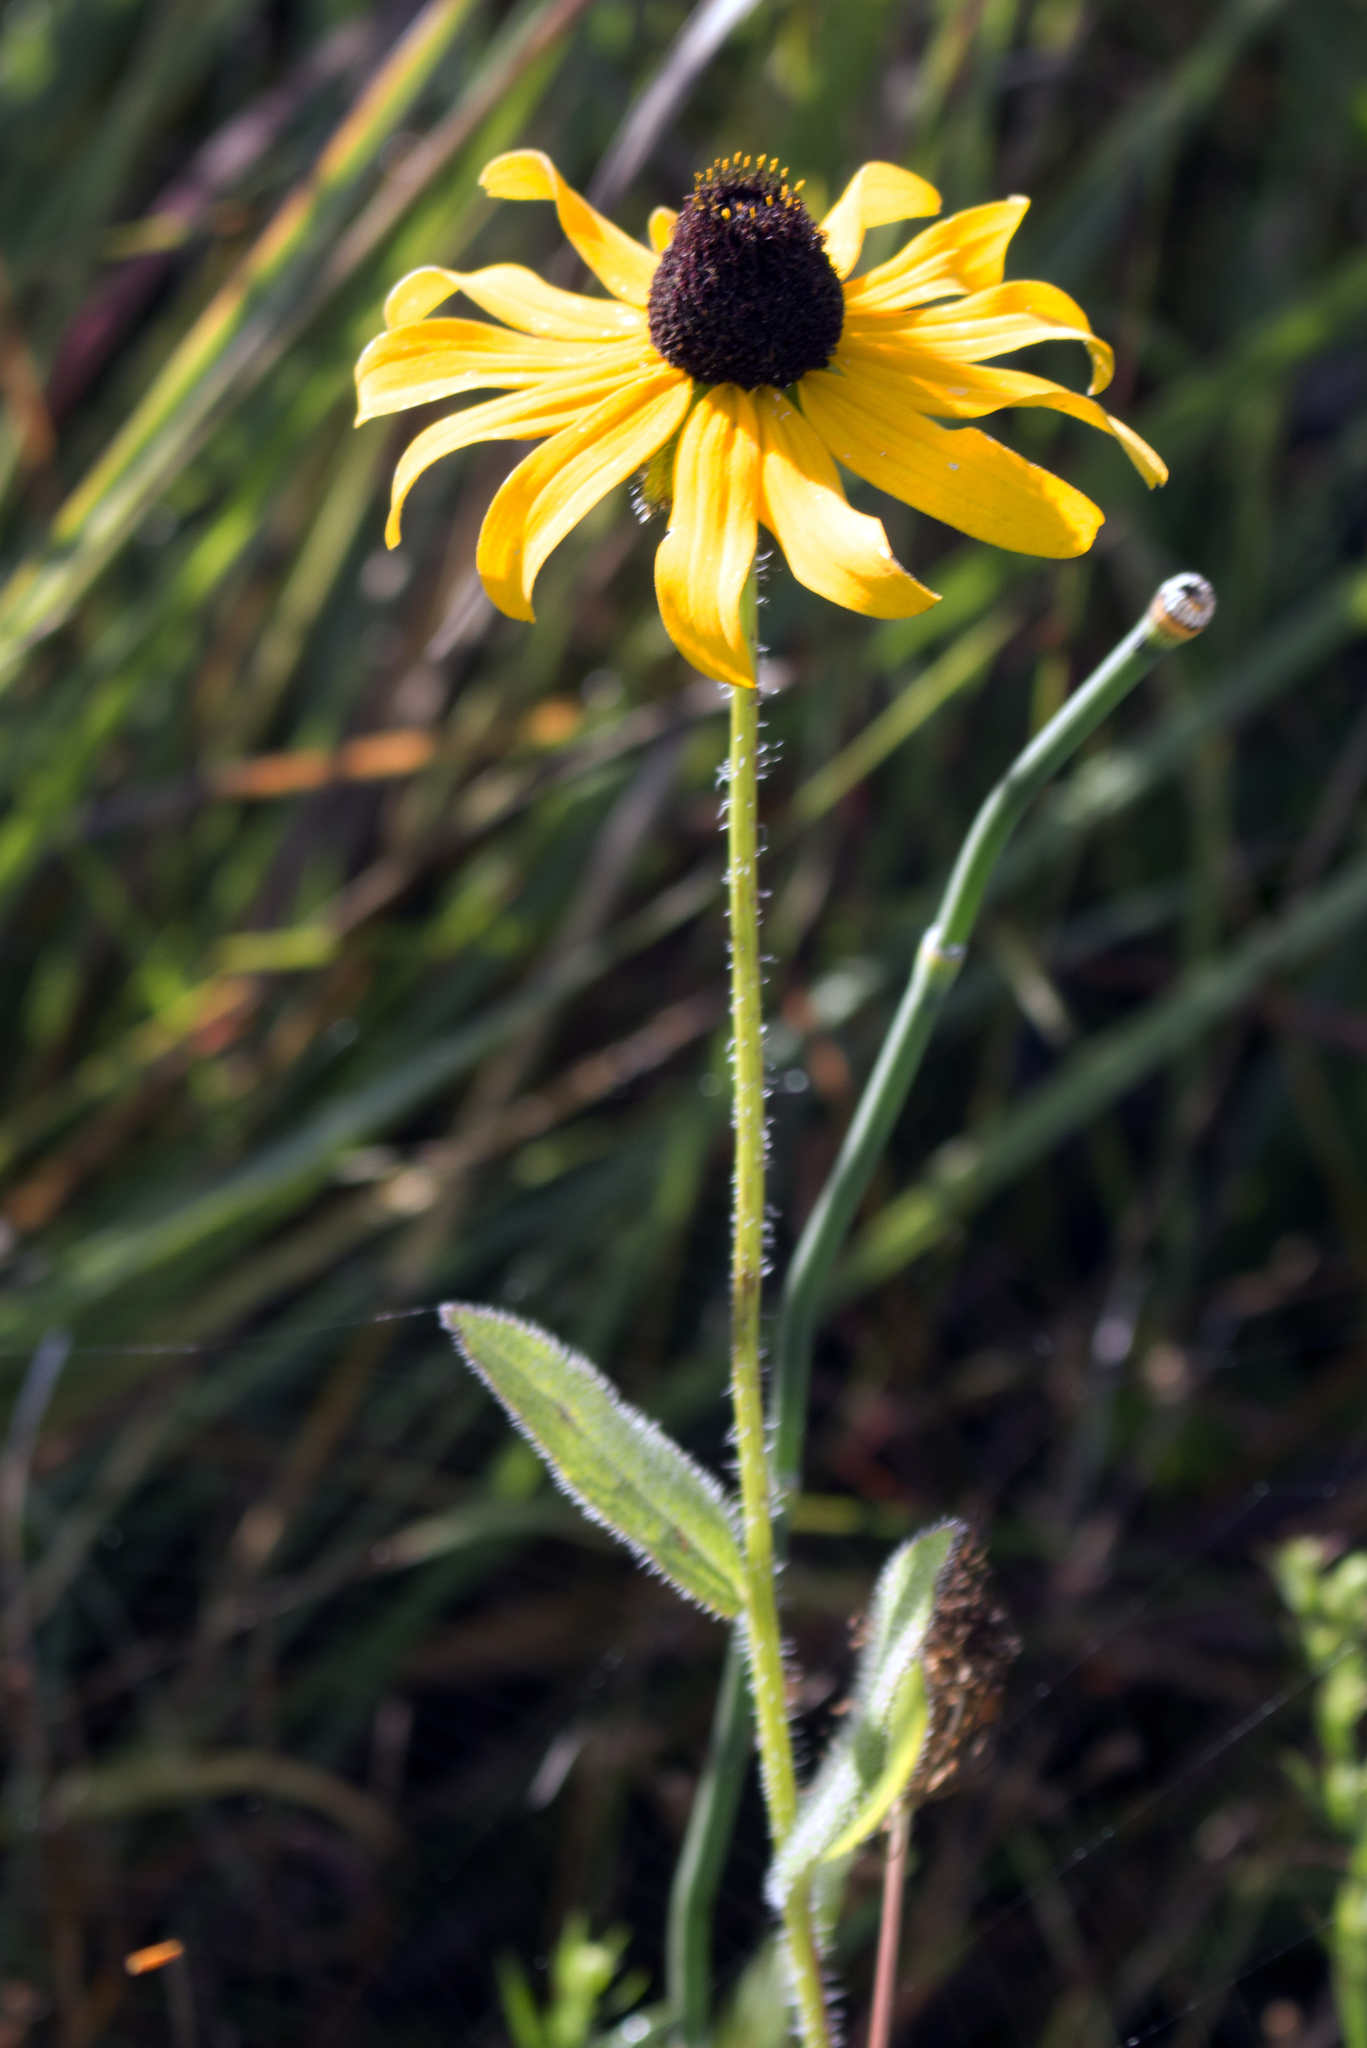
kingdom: Plantae
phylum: Tracheophyta
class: Magnoliopsida
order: Asterales
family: Asteraceae
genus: Rudbeckia
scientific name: Rudbeckia hirta
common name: Black-eyed-susan
